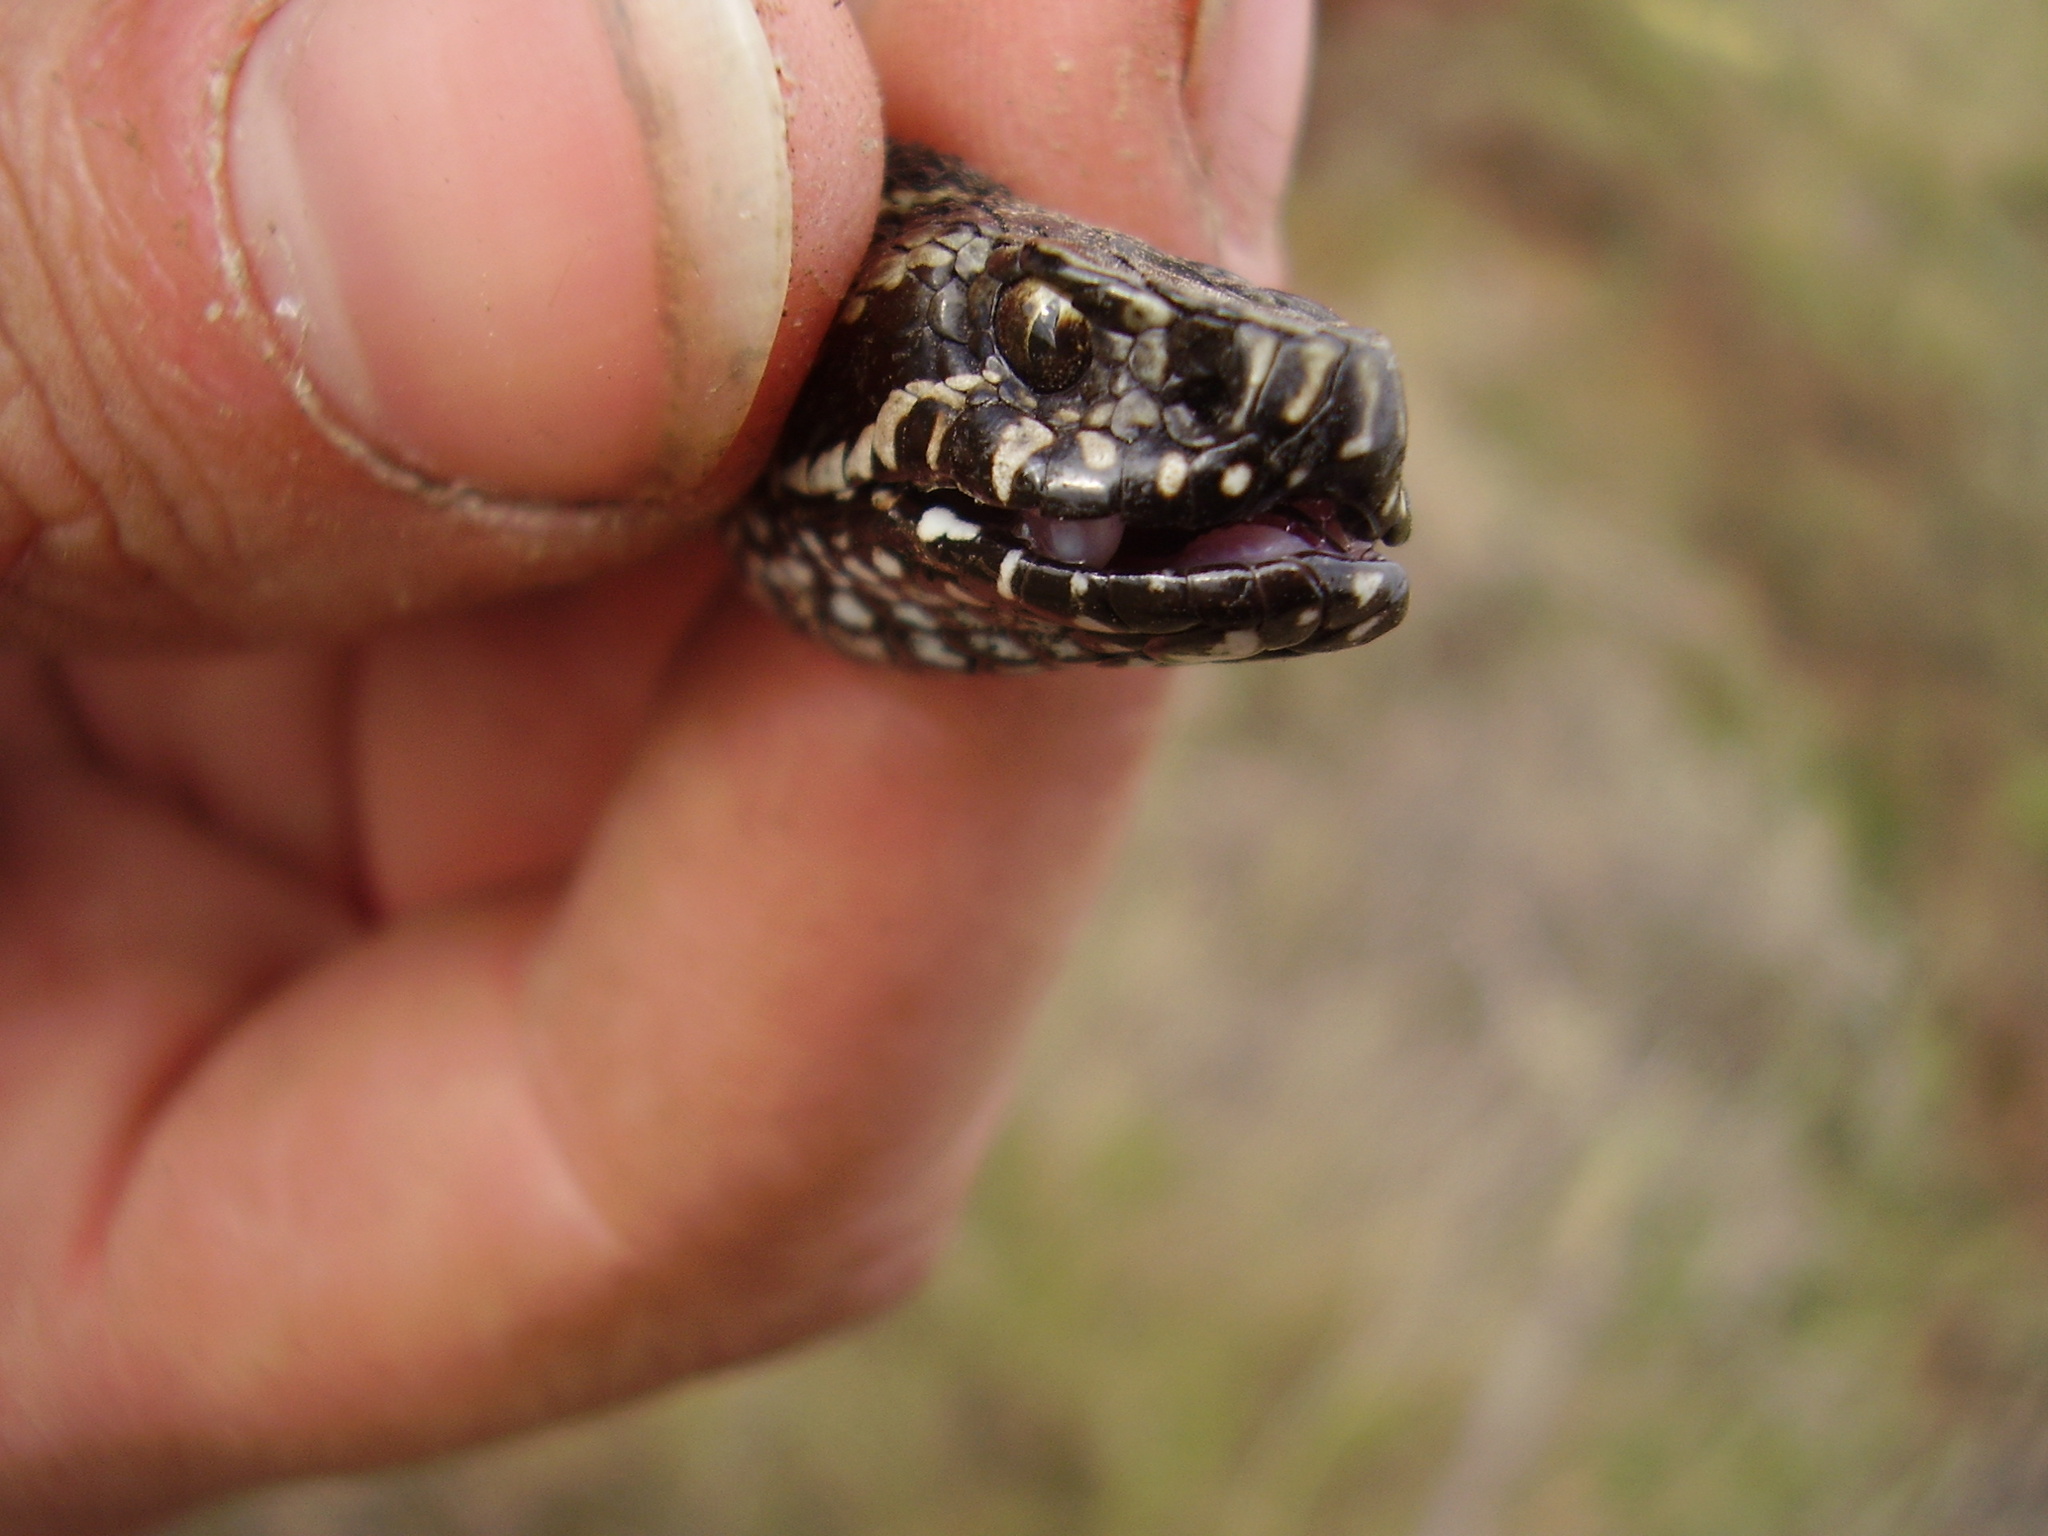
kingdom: Animalia
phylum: Chordata
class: Squamata
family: Viperidae
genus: Vipera
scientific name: Vipera renardi
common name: Eastern steppe viper
